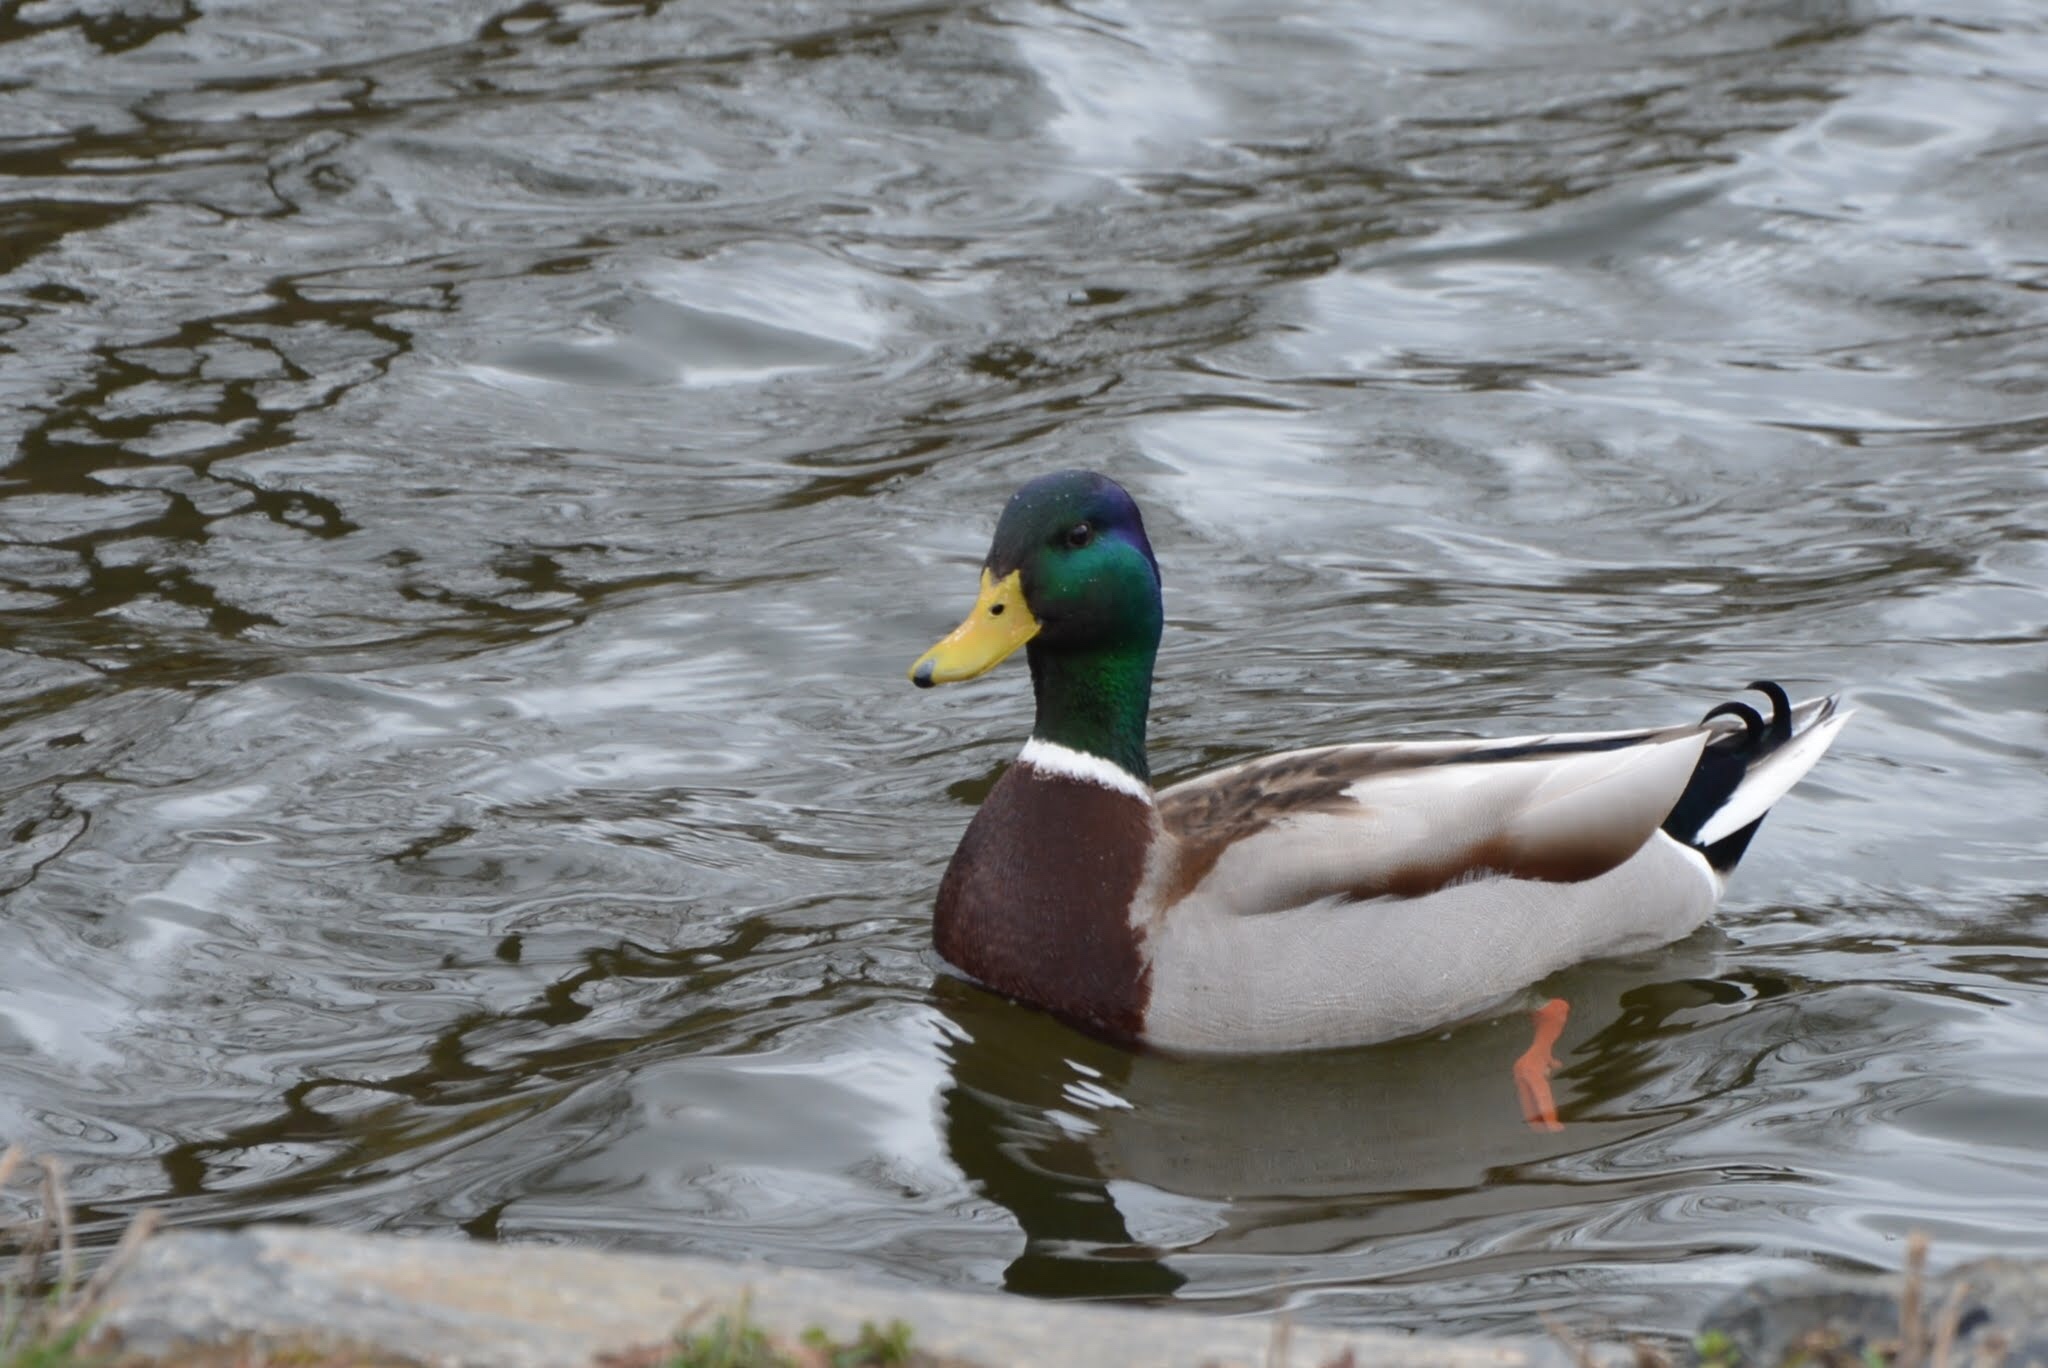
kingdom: Animalia
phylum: Chordata
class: Aves
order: Anseriformes
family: Anatidae
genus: Anas
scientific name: Anas platyrhynchos
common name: Mallard
